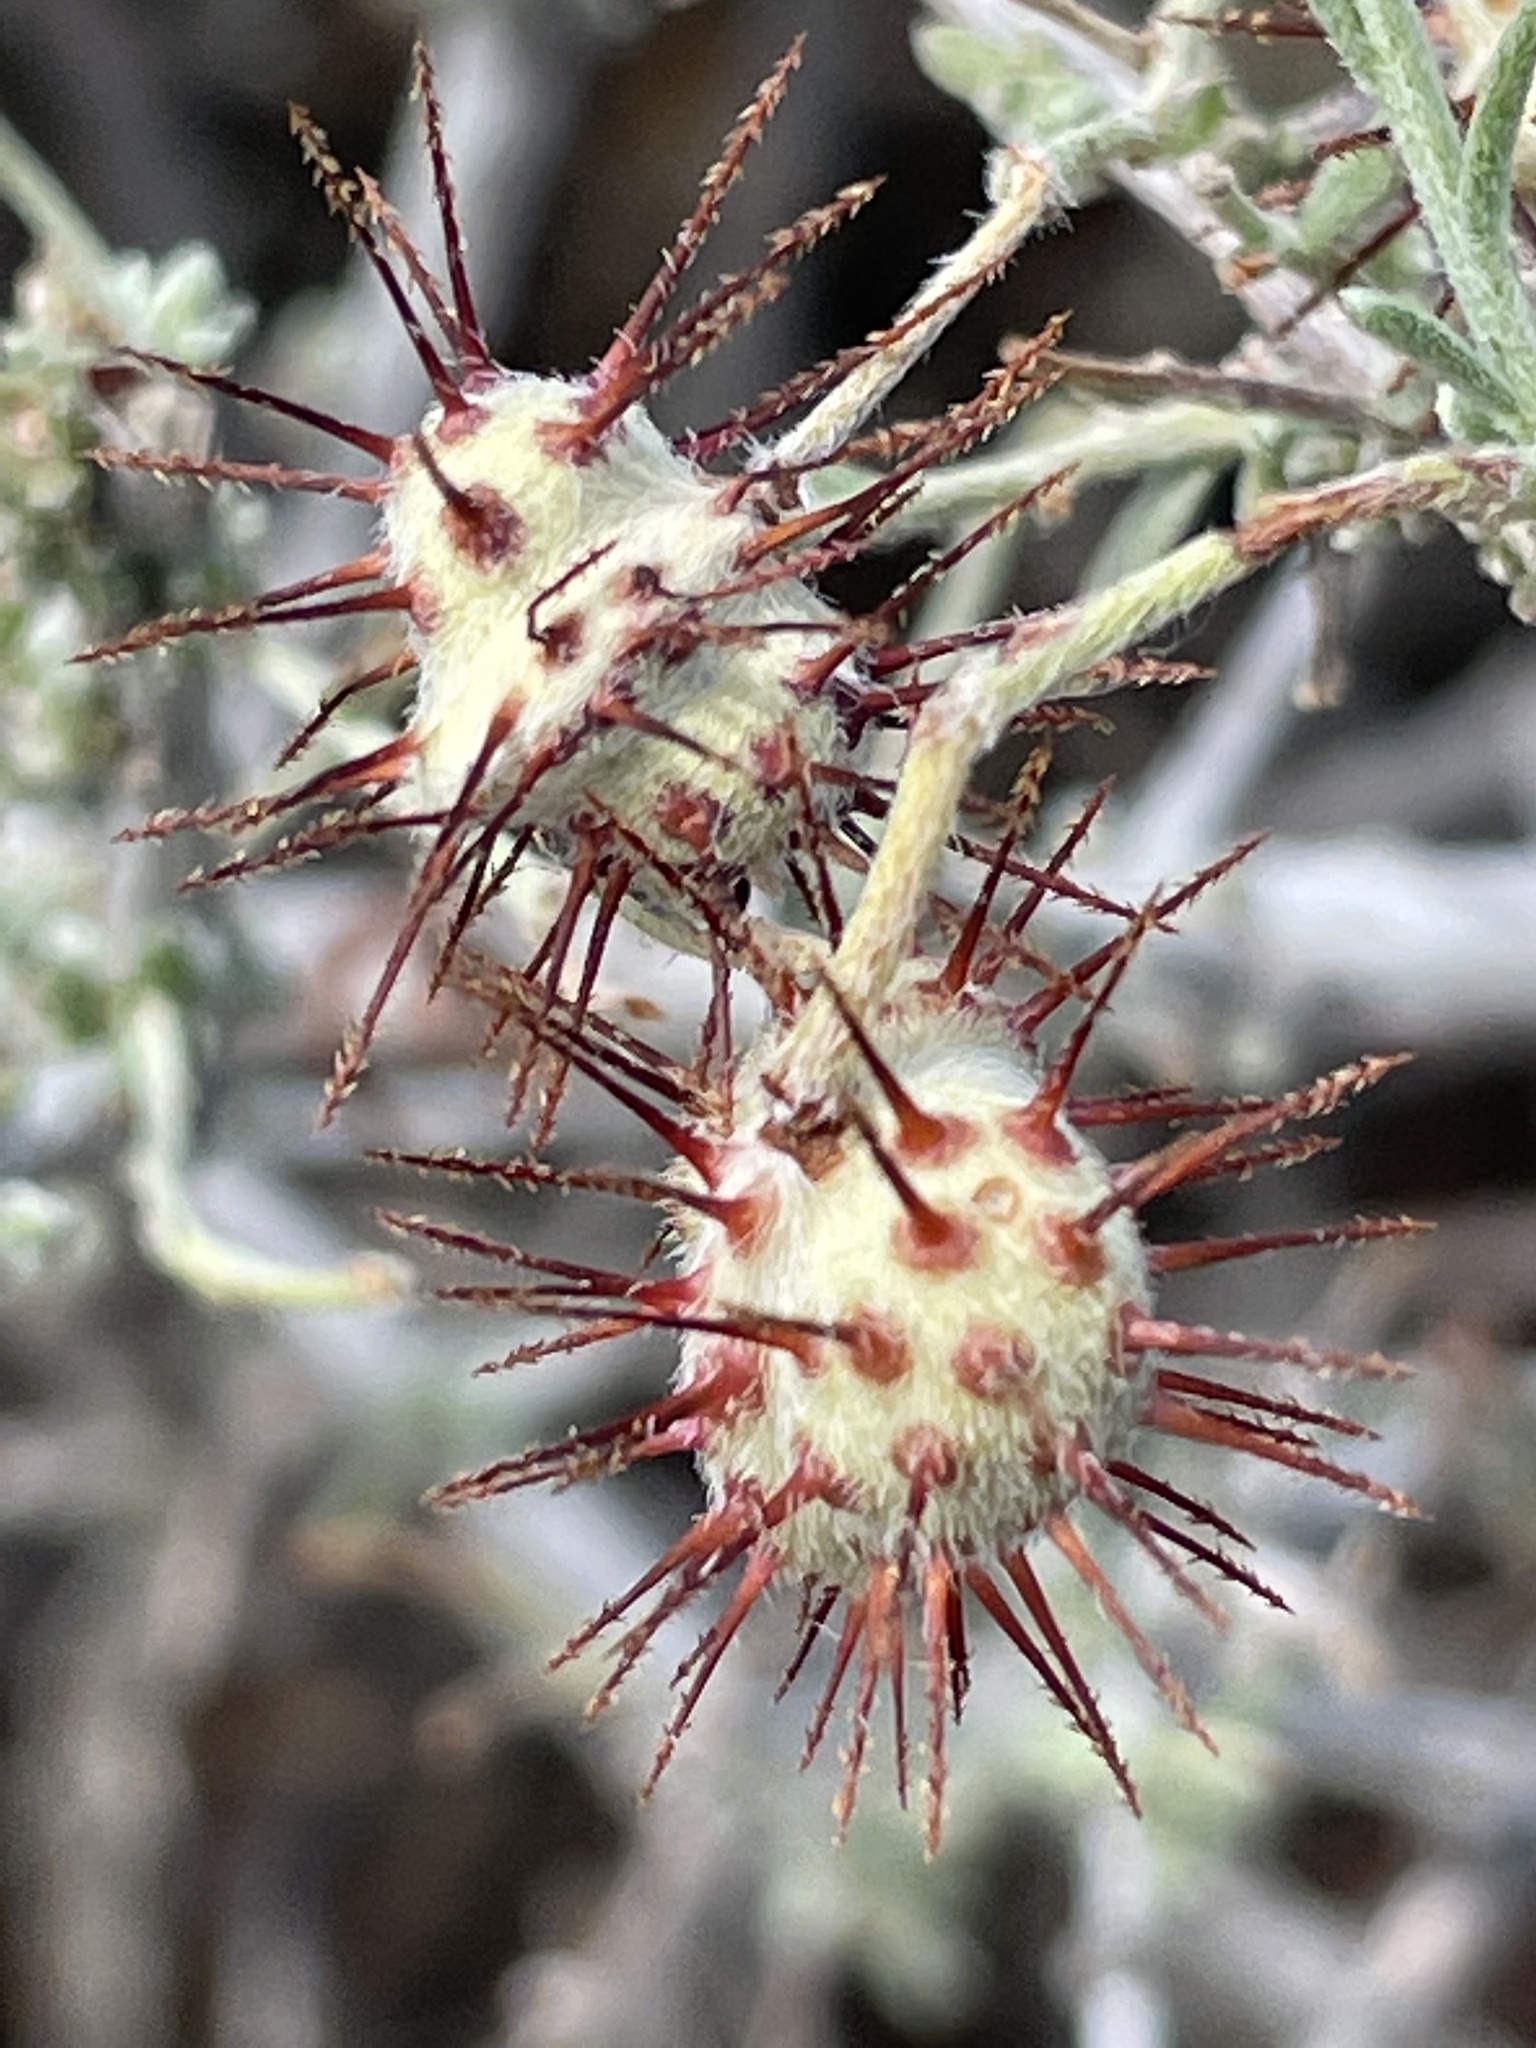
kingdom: Plantae
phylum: Tracheophyta
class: Magnoliopsida
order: Zygophyllales
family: Krameriaceae
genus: Krameria
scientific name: Krameria erecta
